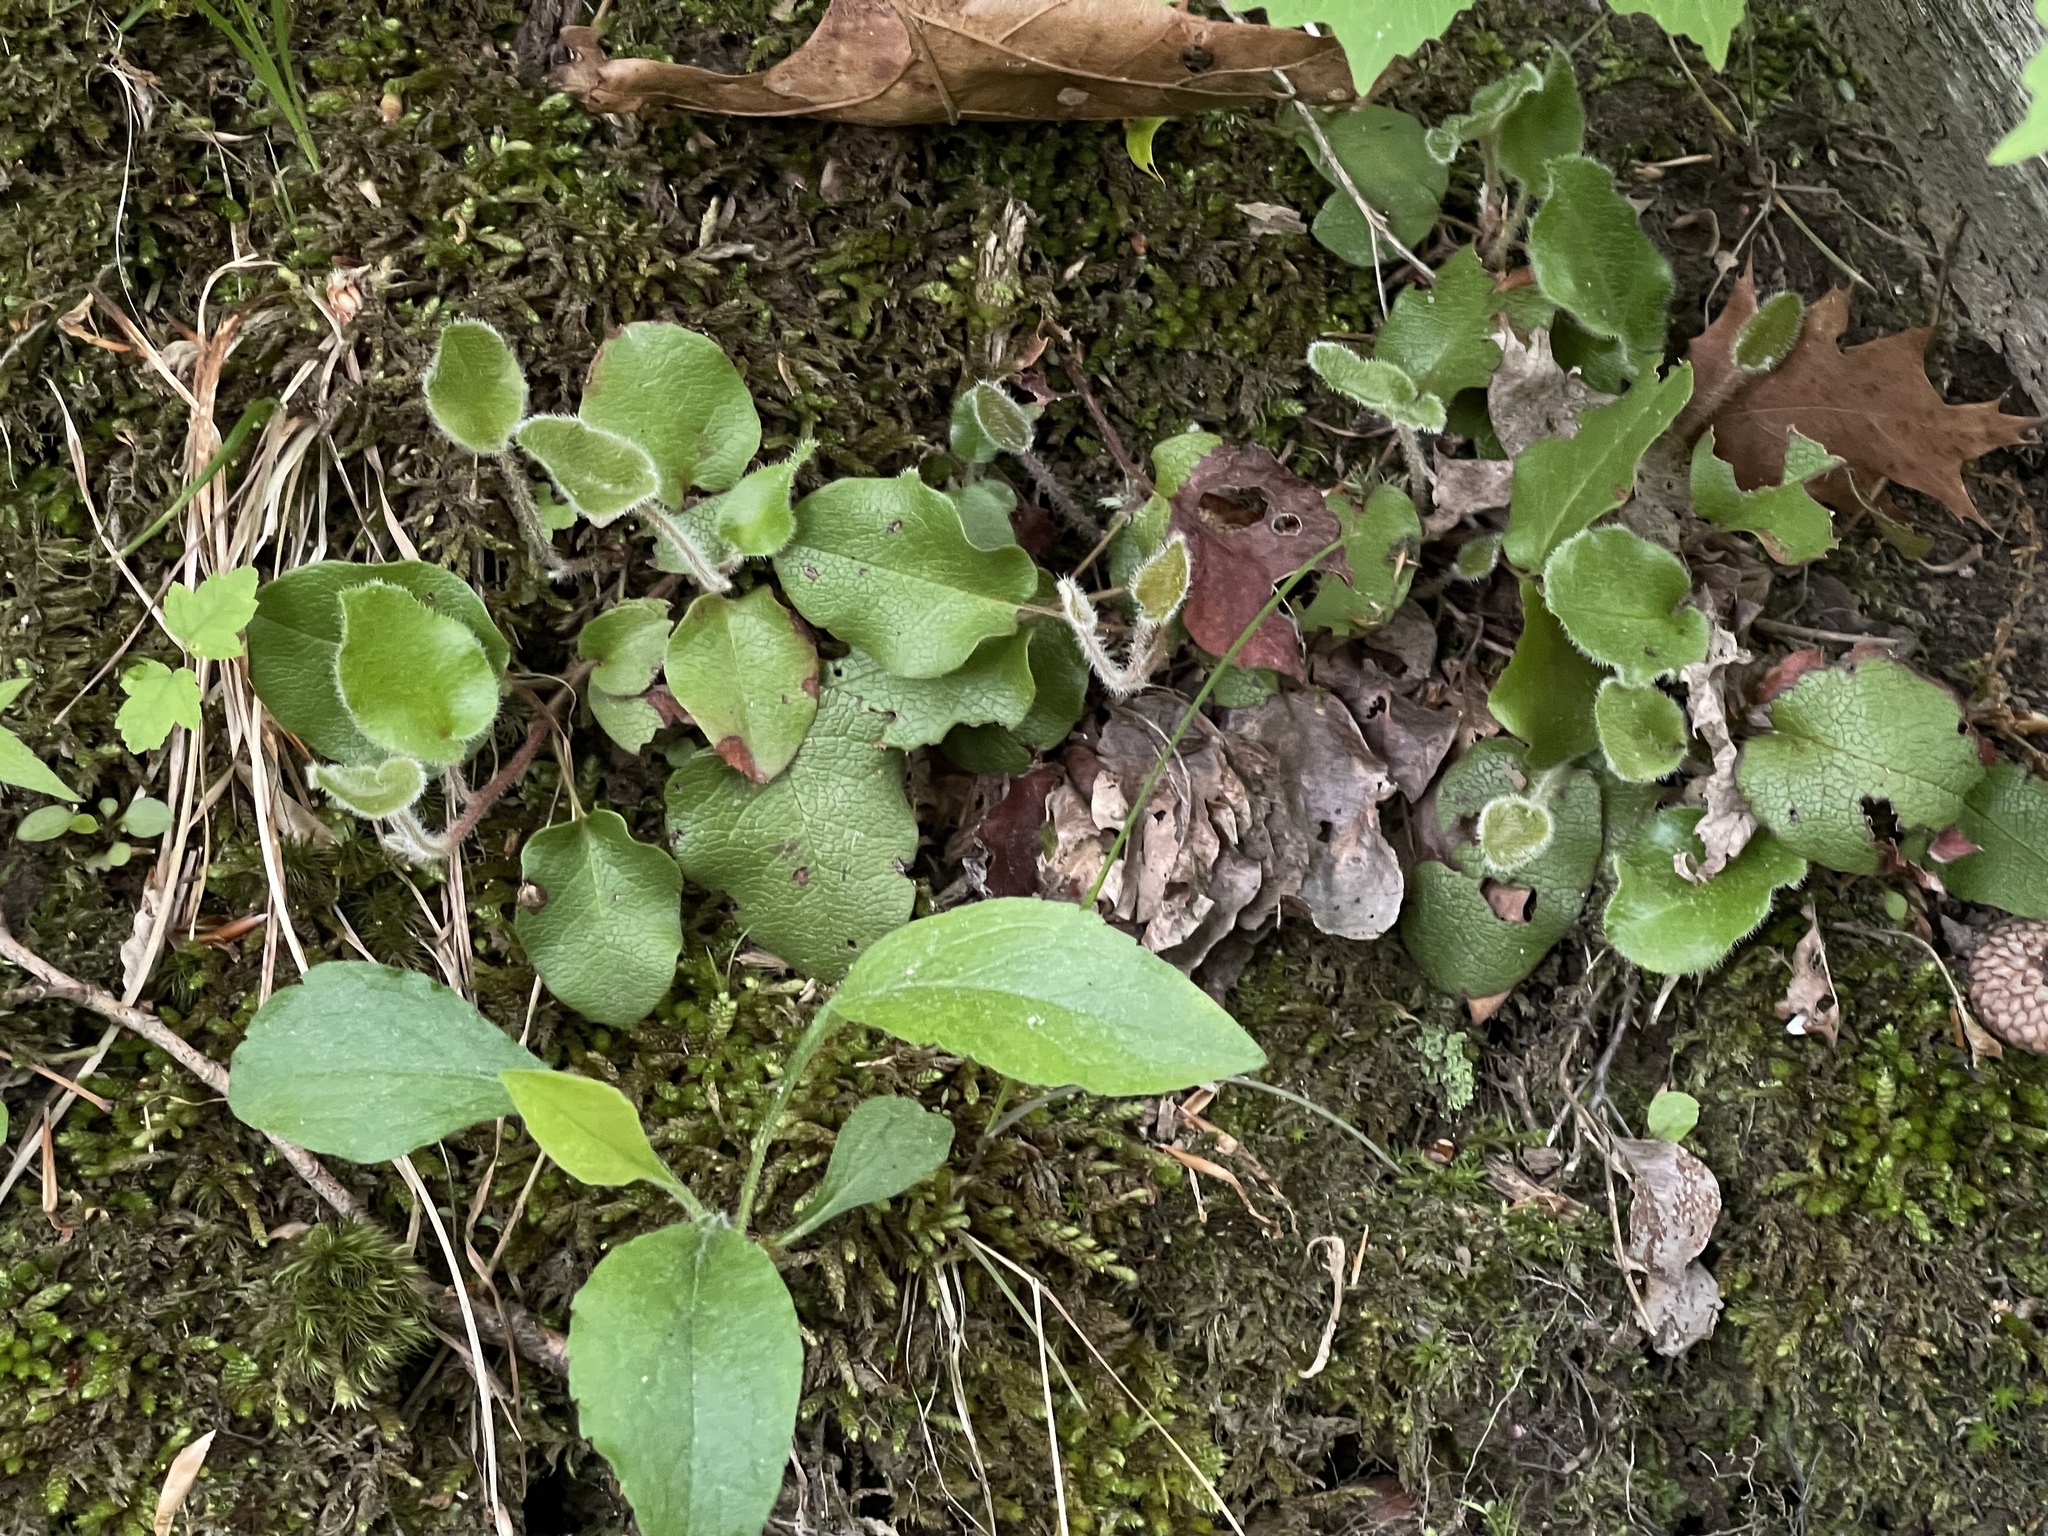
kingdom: Plantae
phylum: Tracheophyta
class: Magnoliopsida
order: Ericales
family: Ericaceae
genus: Epigaea
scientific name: Epigaea repens
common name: Gravelroot
